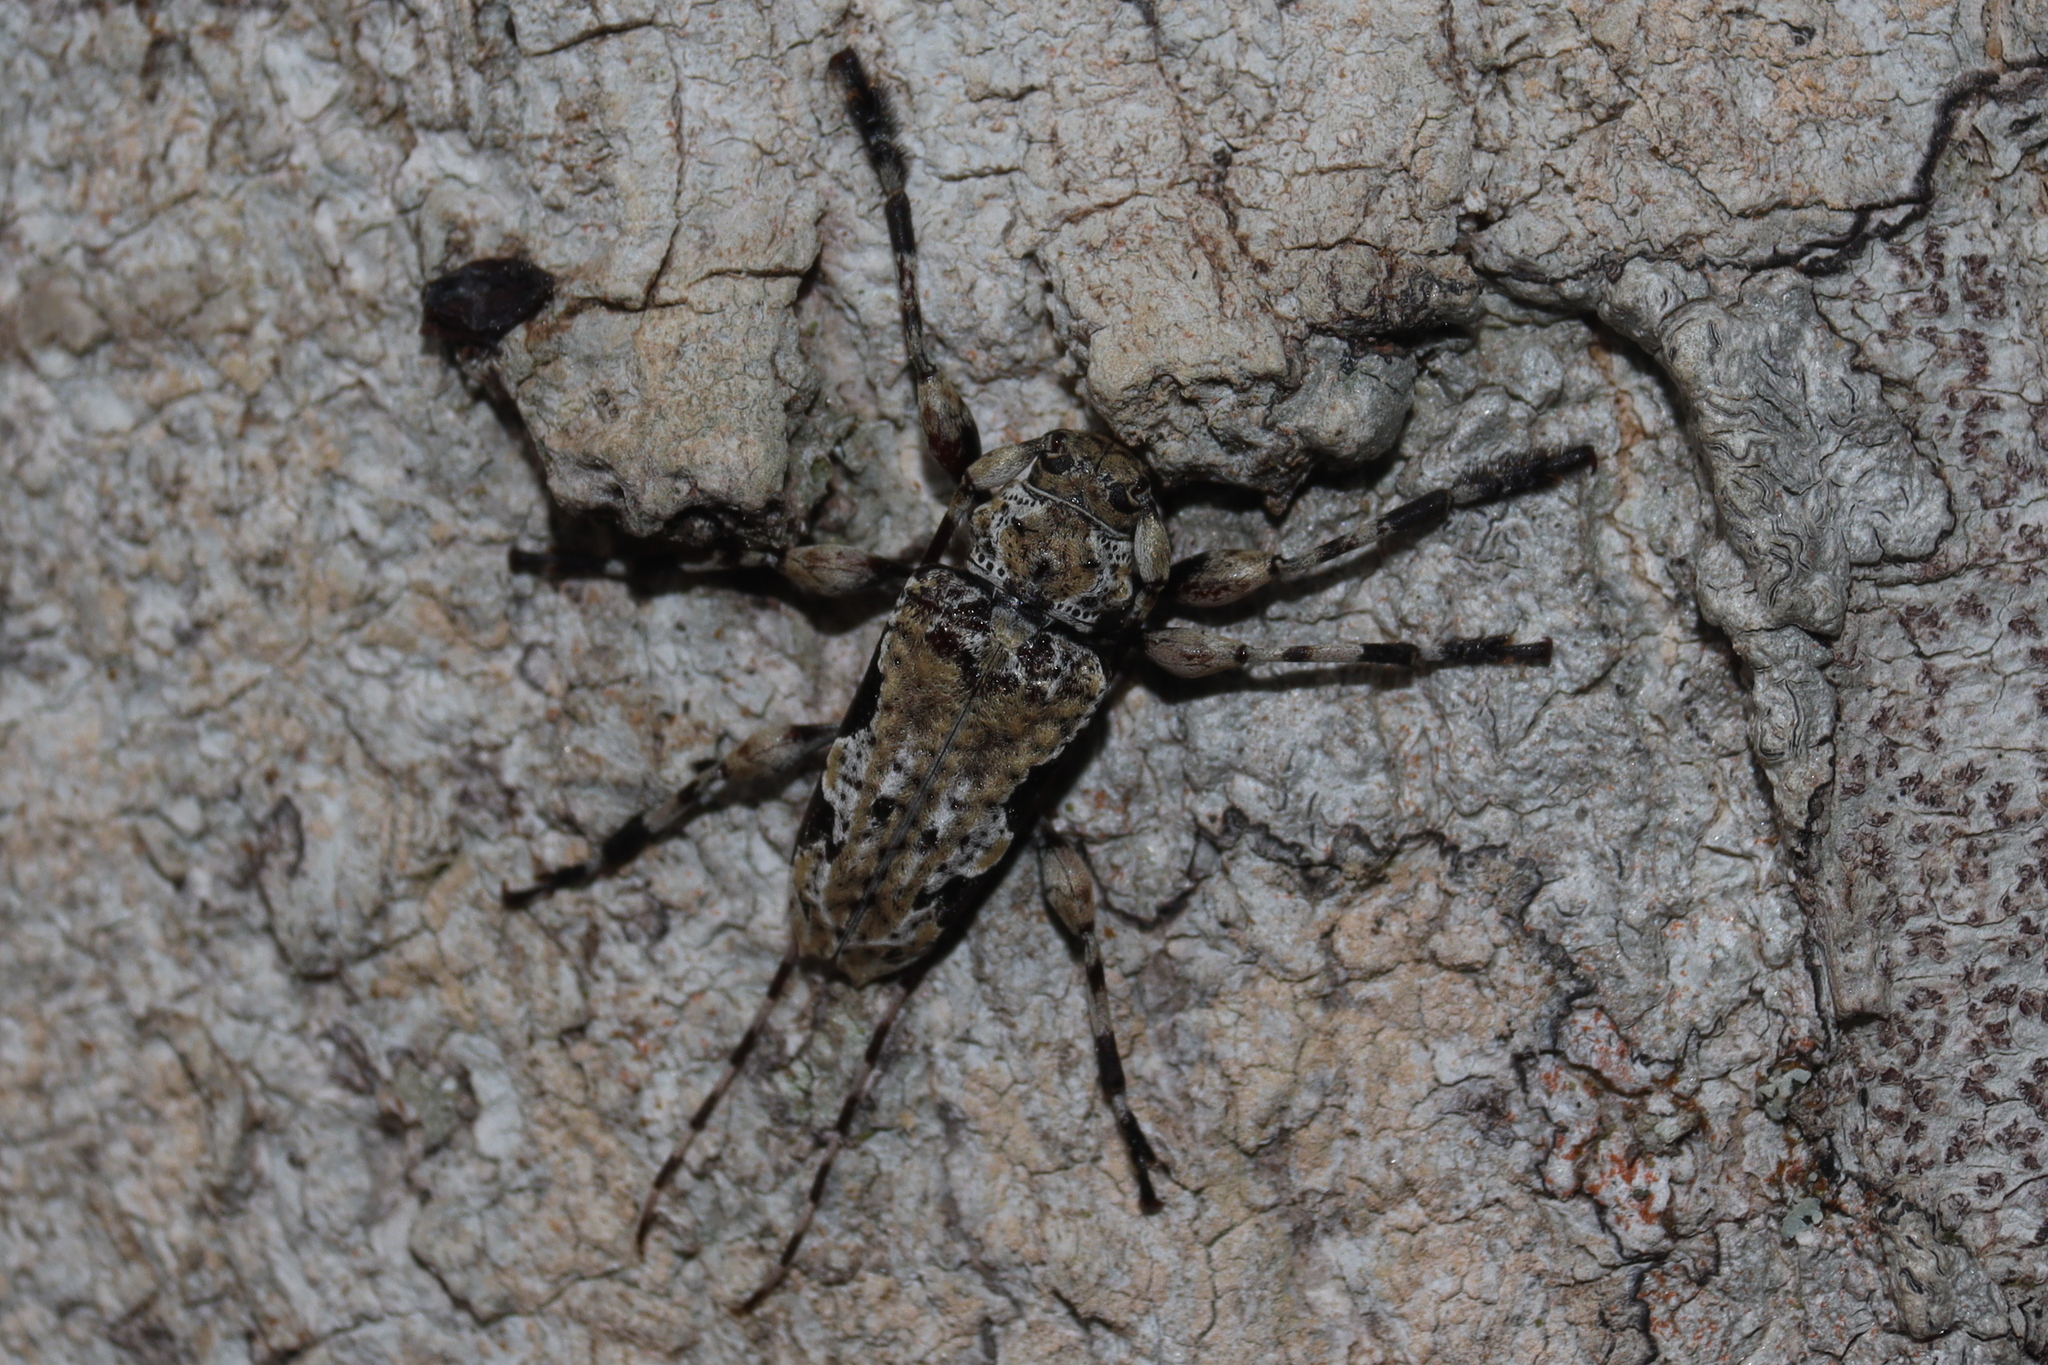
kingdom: Animalia
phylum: Arthropoda
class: Insecta
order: Coleoptera
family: Cerambycidae
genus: Oreodera
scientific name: Oreodera exigua
